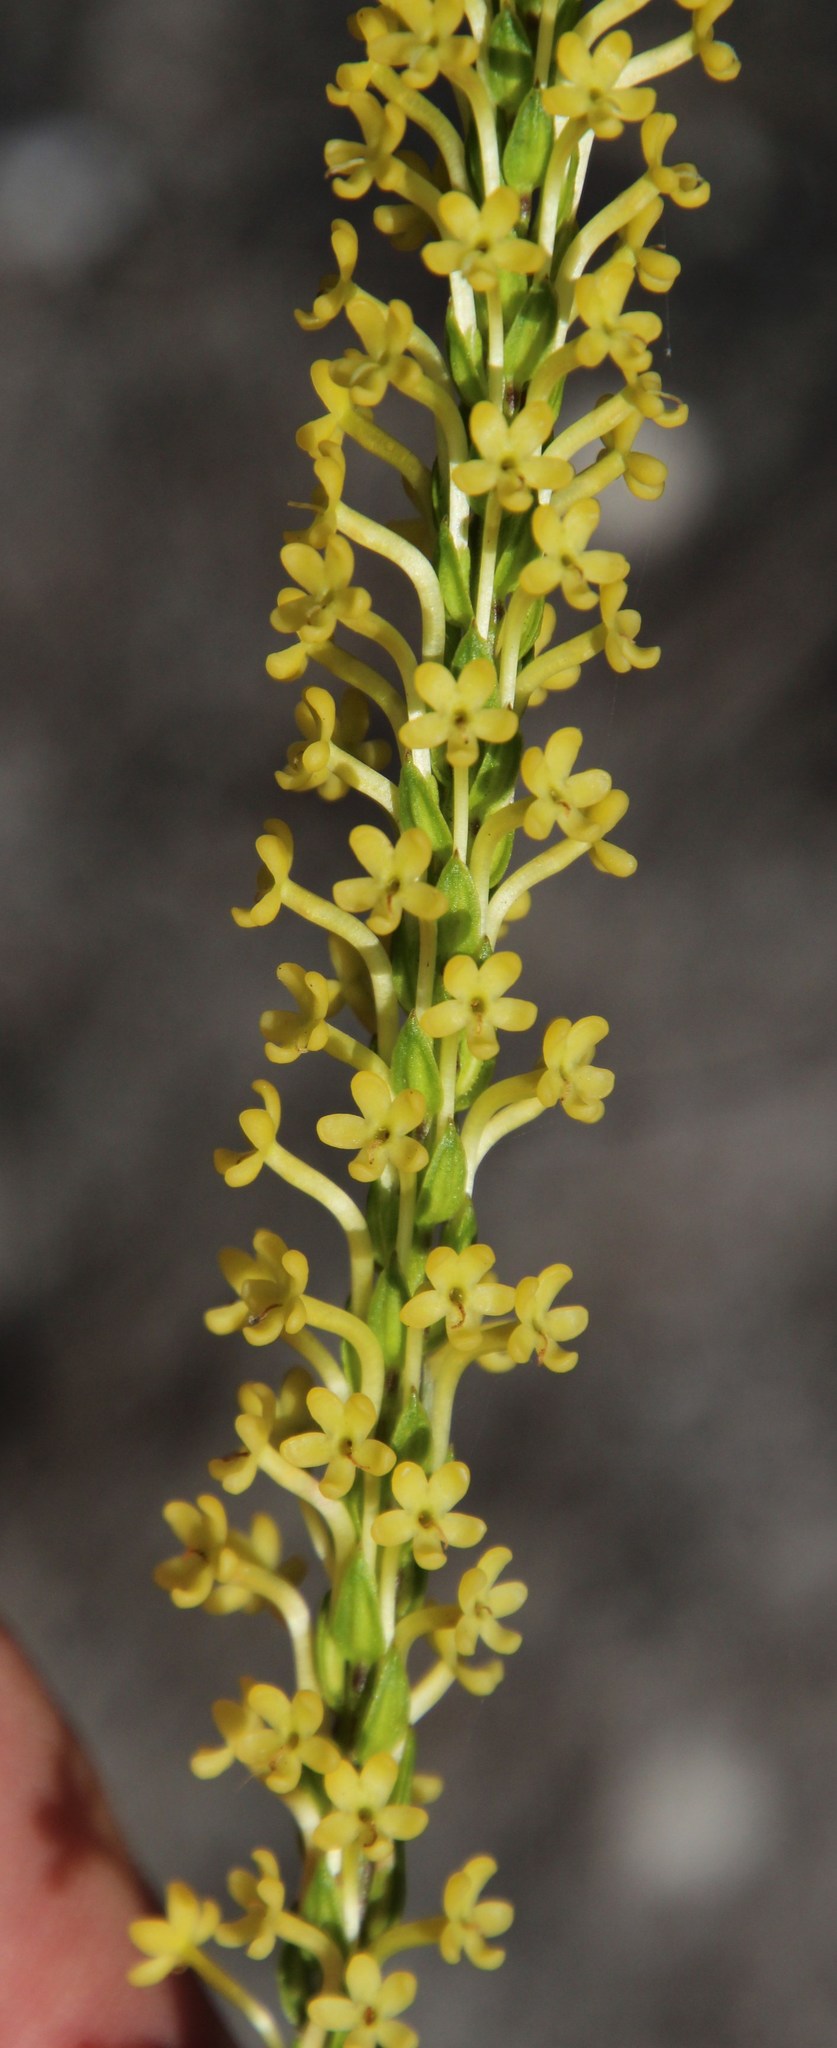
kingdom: Plantae
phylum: Tracheophyta
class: Magnoliopsida
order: Lamiales
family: Scrophulariaceae
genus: Microdon
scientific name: Microdon dubius
